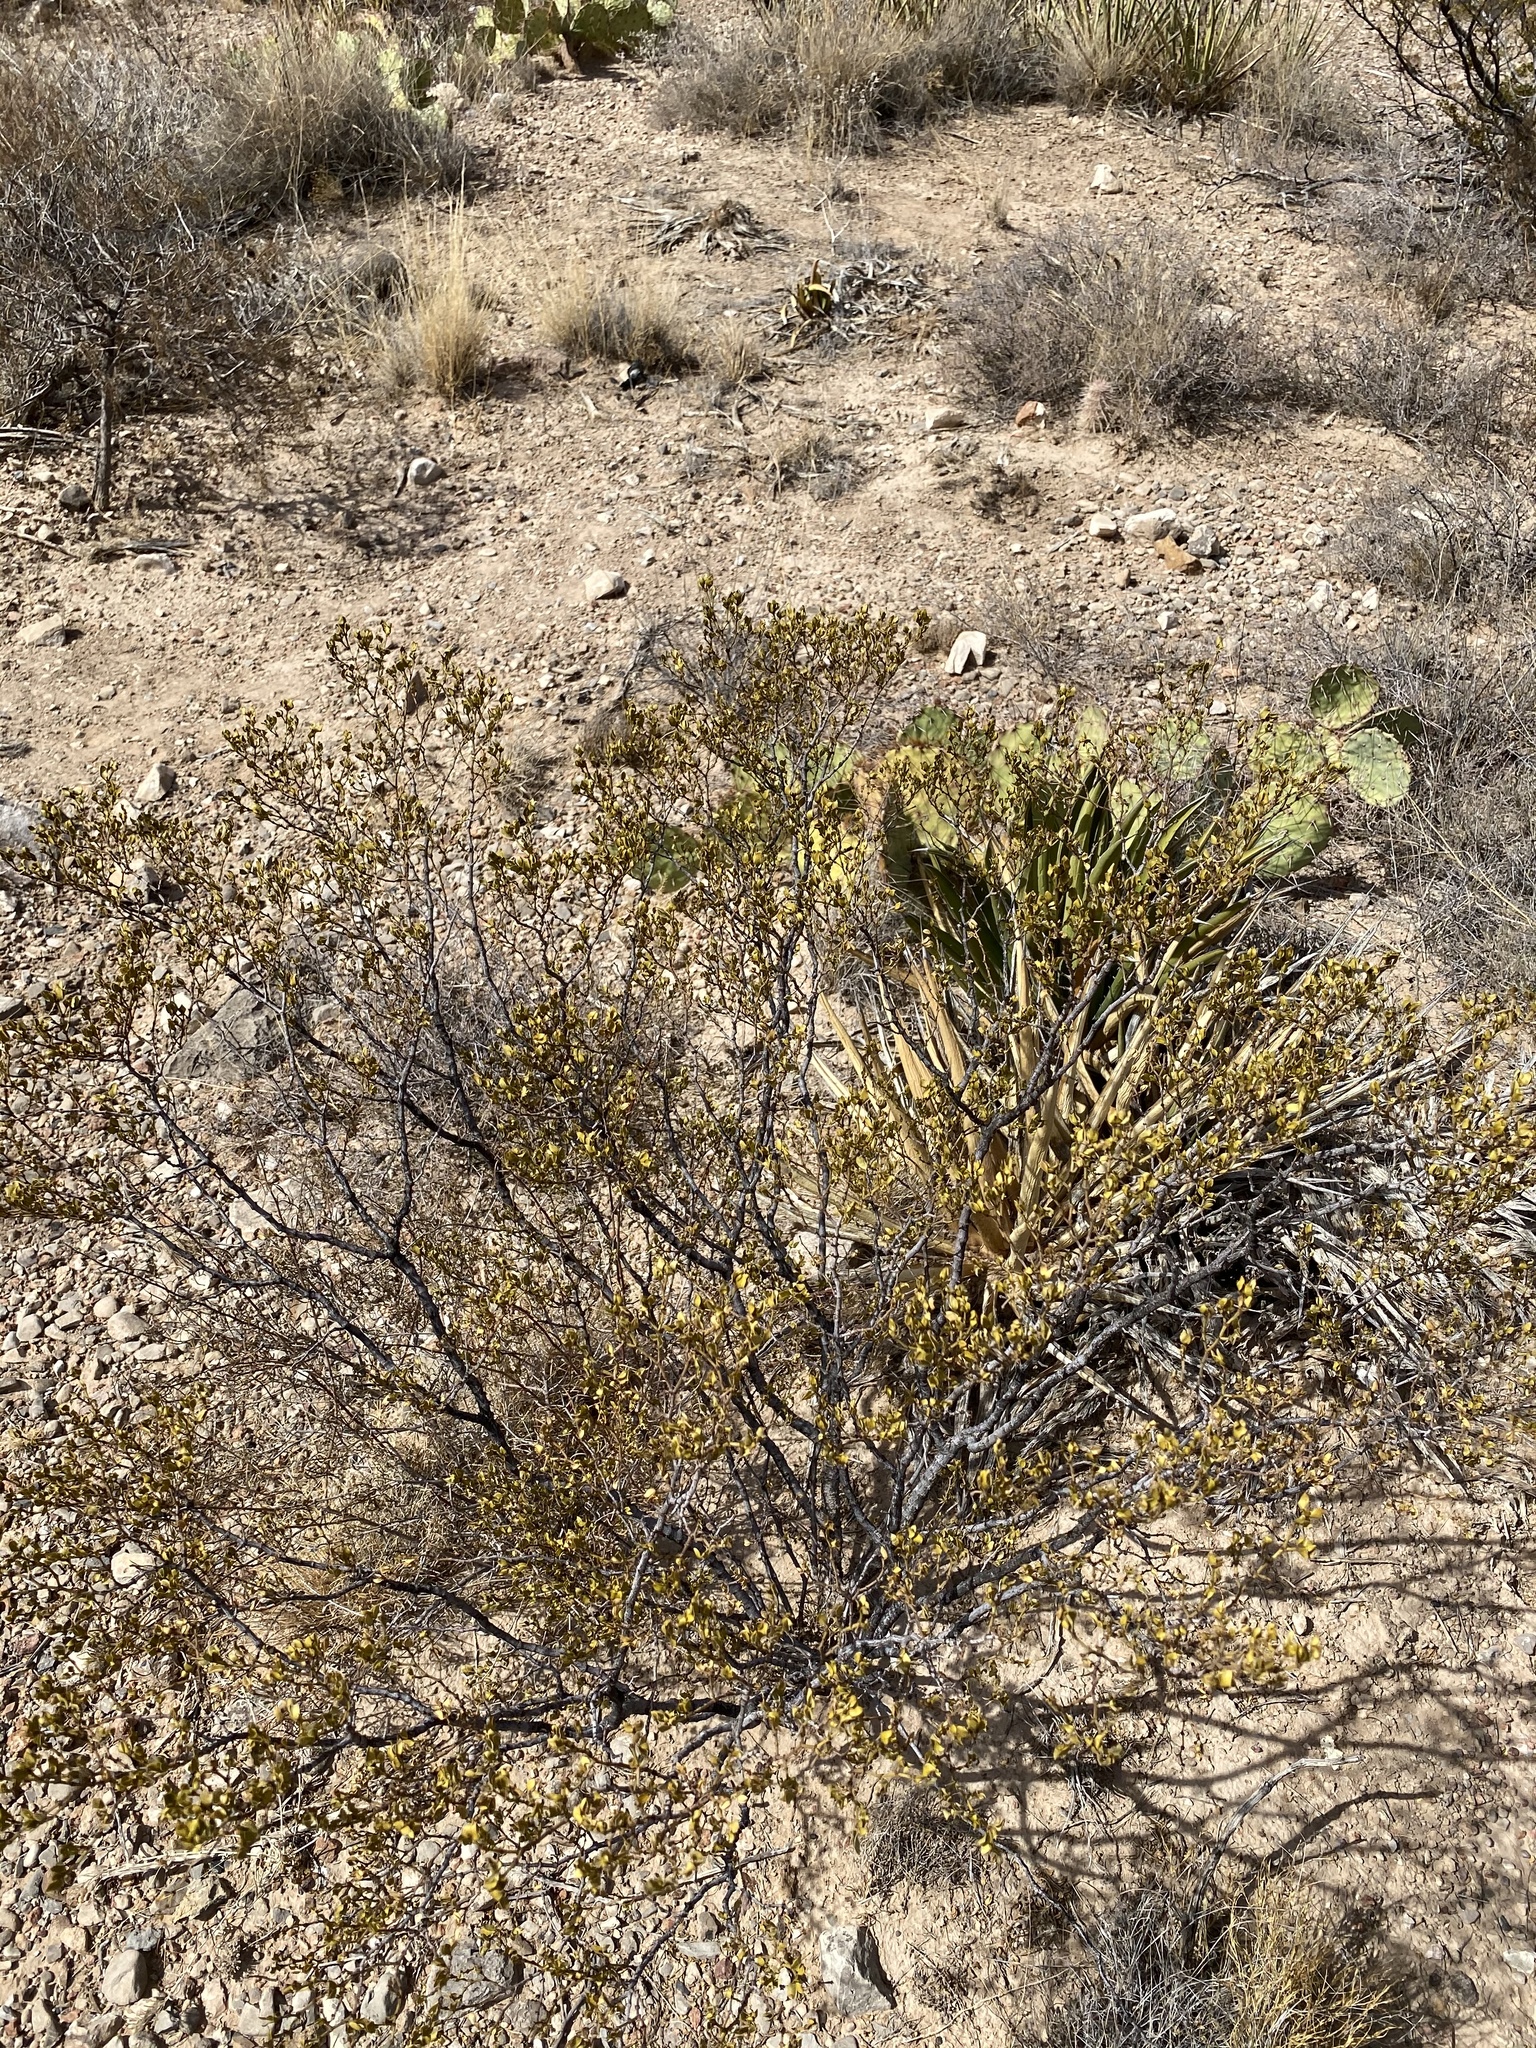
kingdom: Plantae
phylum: Tracheophyta
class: Magnoliopsida
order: Zygophyllales
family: Zygophyllaceae
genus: Larrea
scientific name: Larrea tridentata
